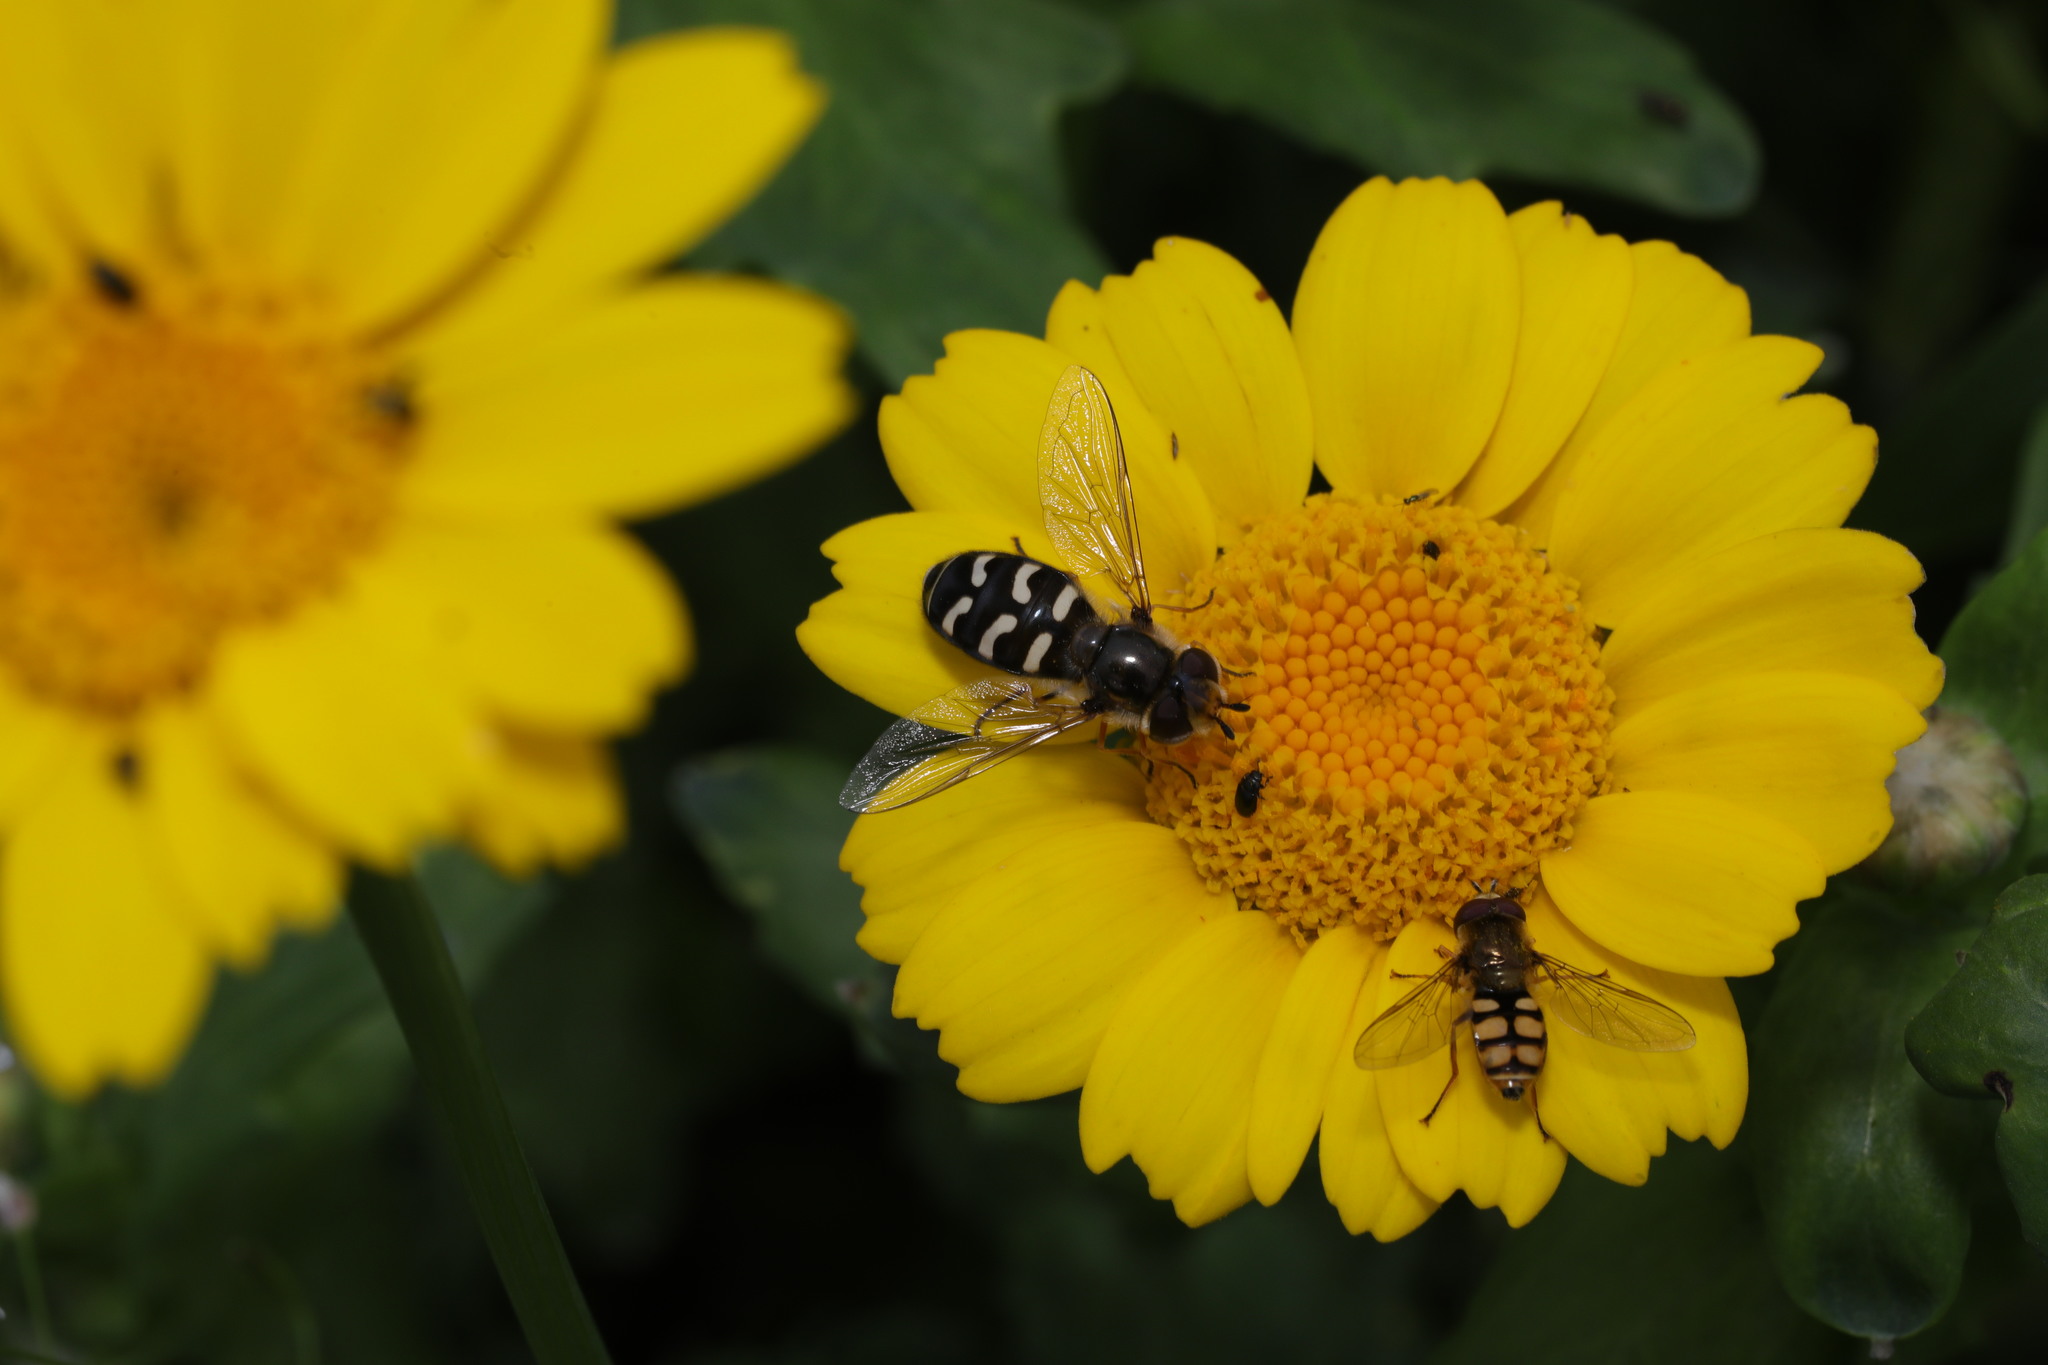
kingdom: Animalia
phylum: Arthropoda
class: Insecta
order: Diptera
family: Syrphidae
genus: Scaeva
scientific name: Scaeva pyrastri
